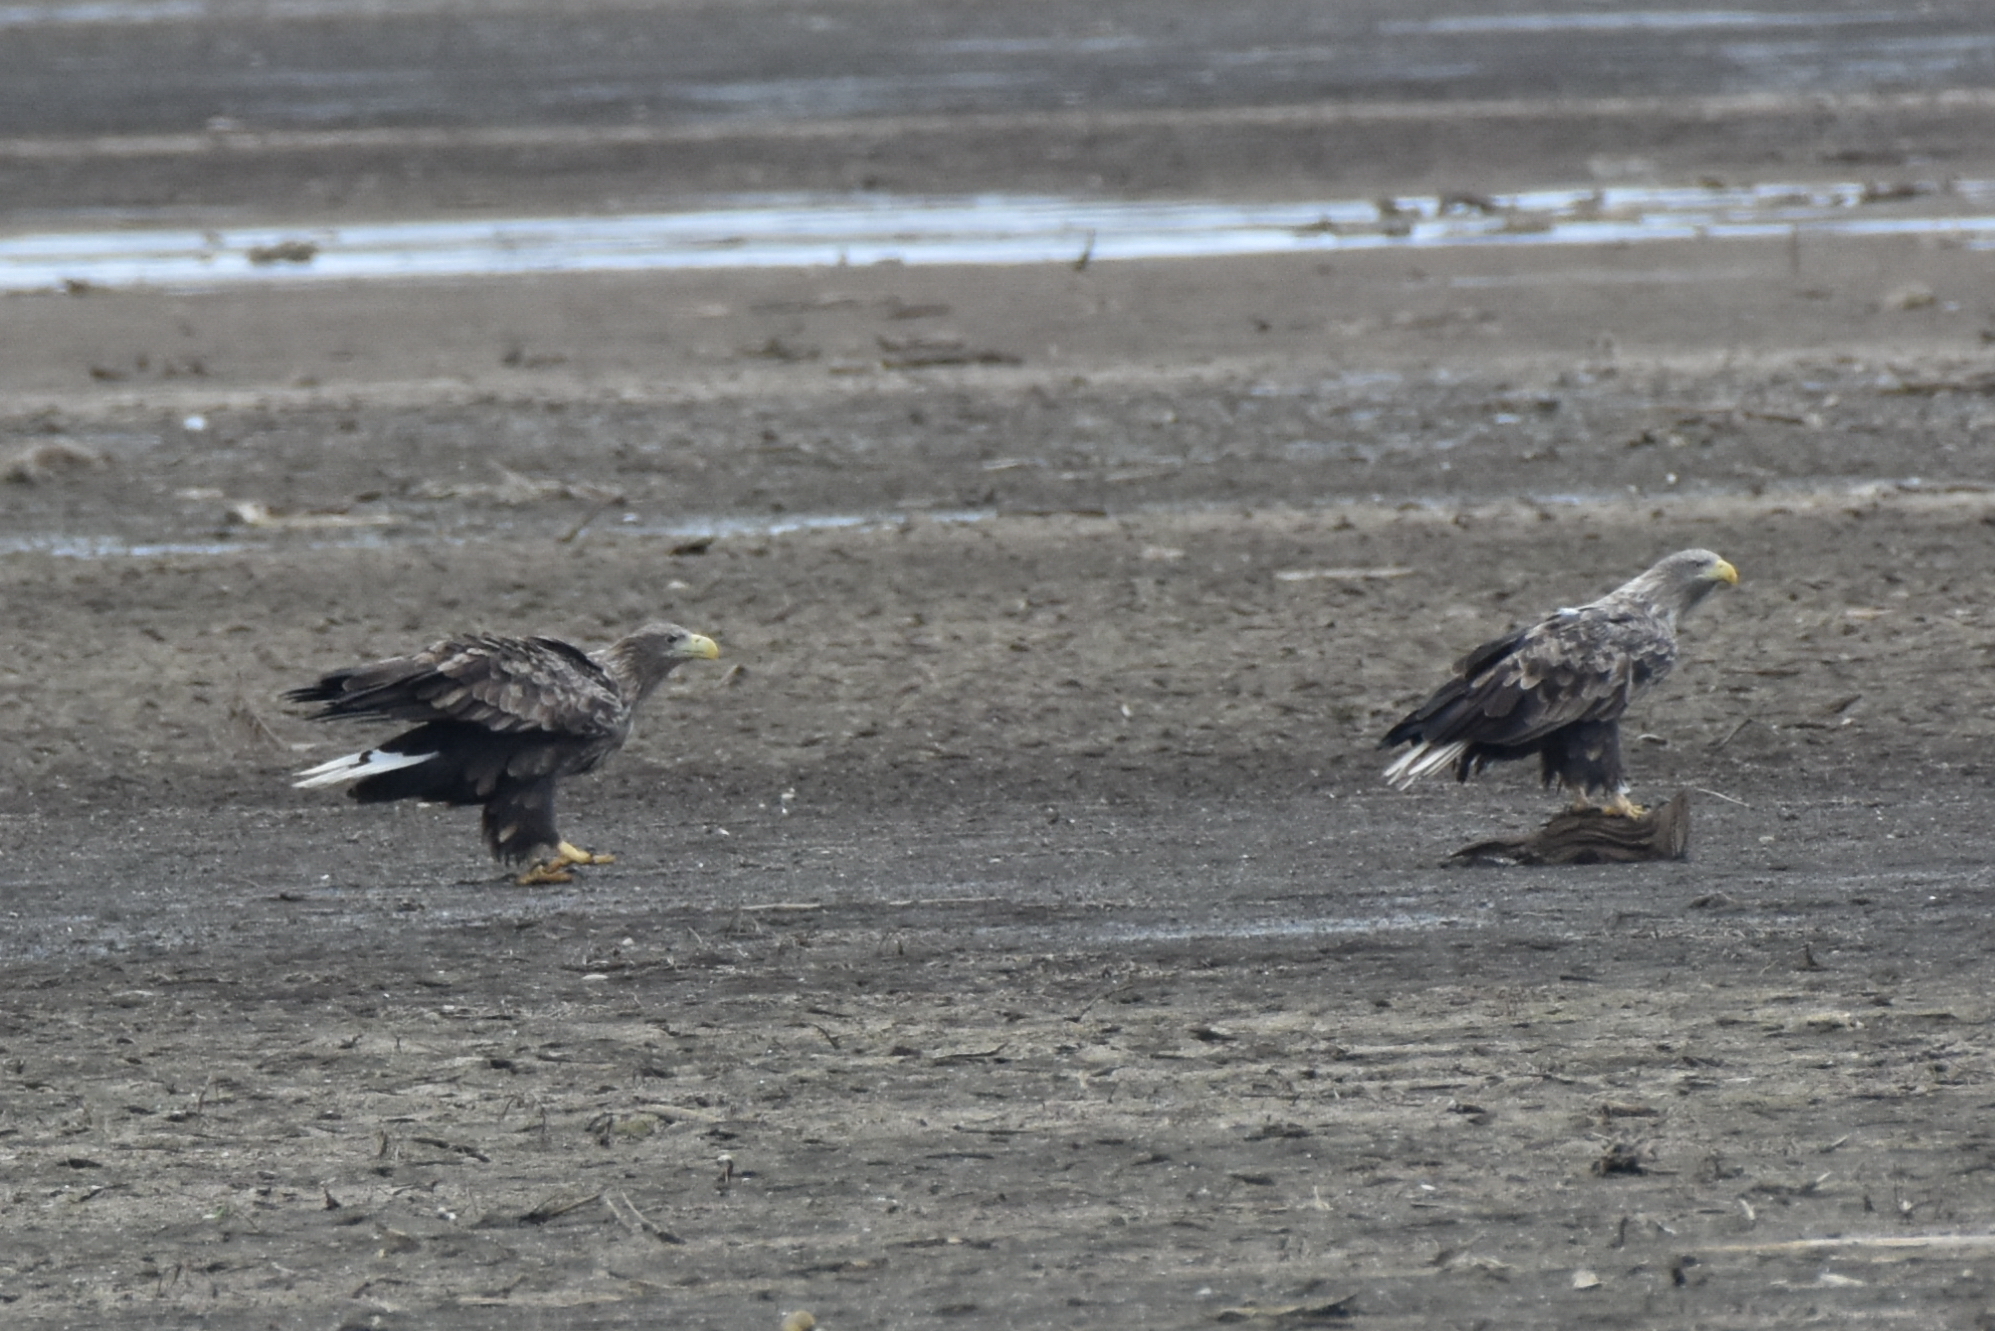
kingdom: Animalia
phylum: Chordata
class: Aves
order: Accipitriformes
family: Accipitridae
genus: Haliaeetus
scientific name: Haliaeetus albicilla
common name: White-tailed eagle
